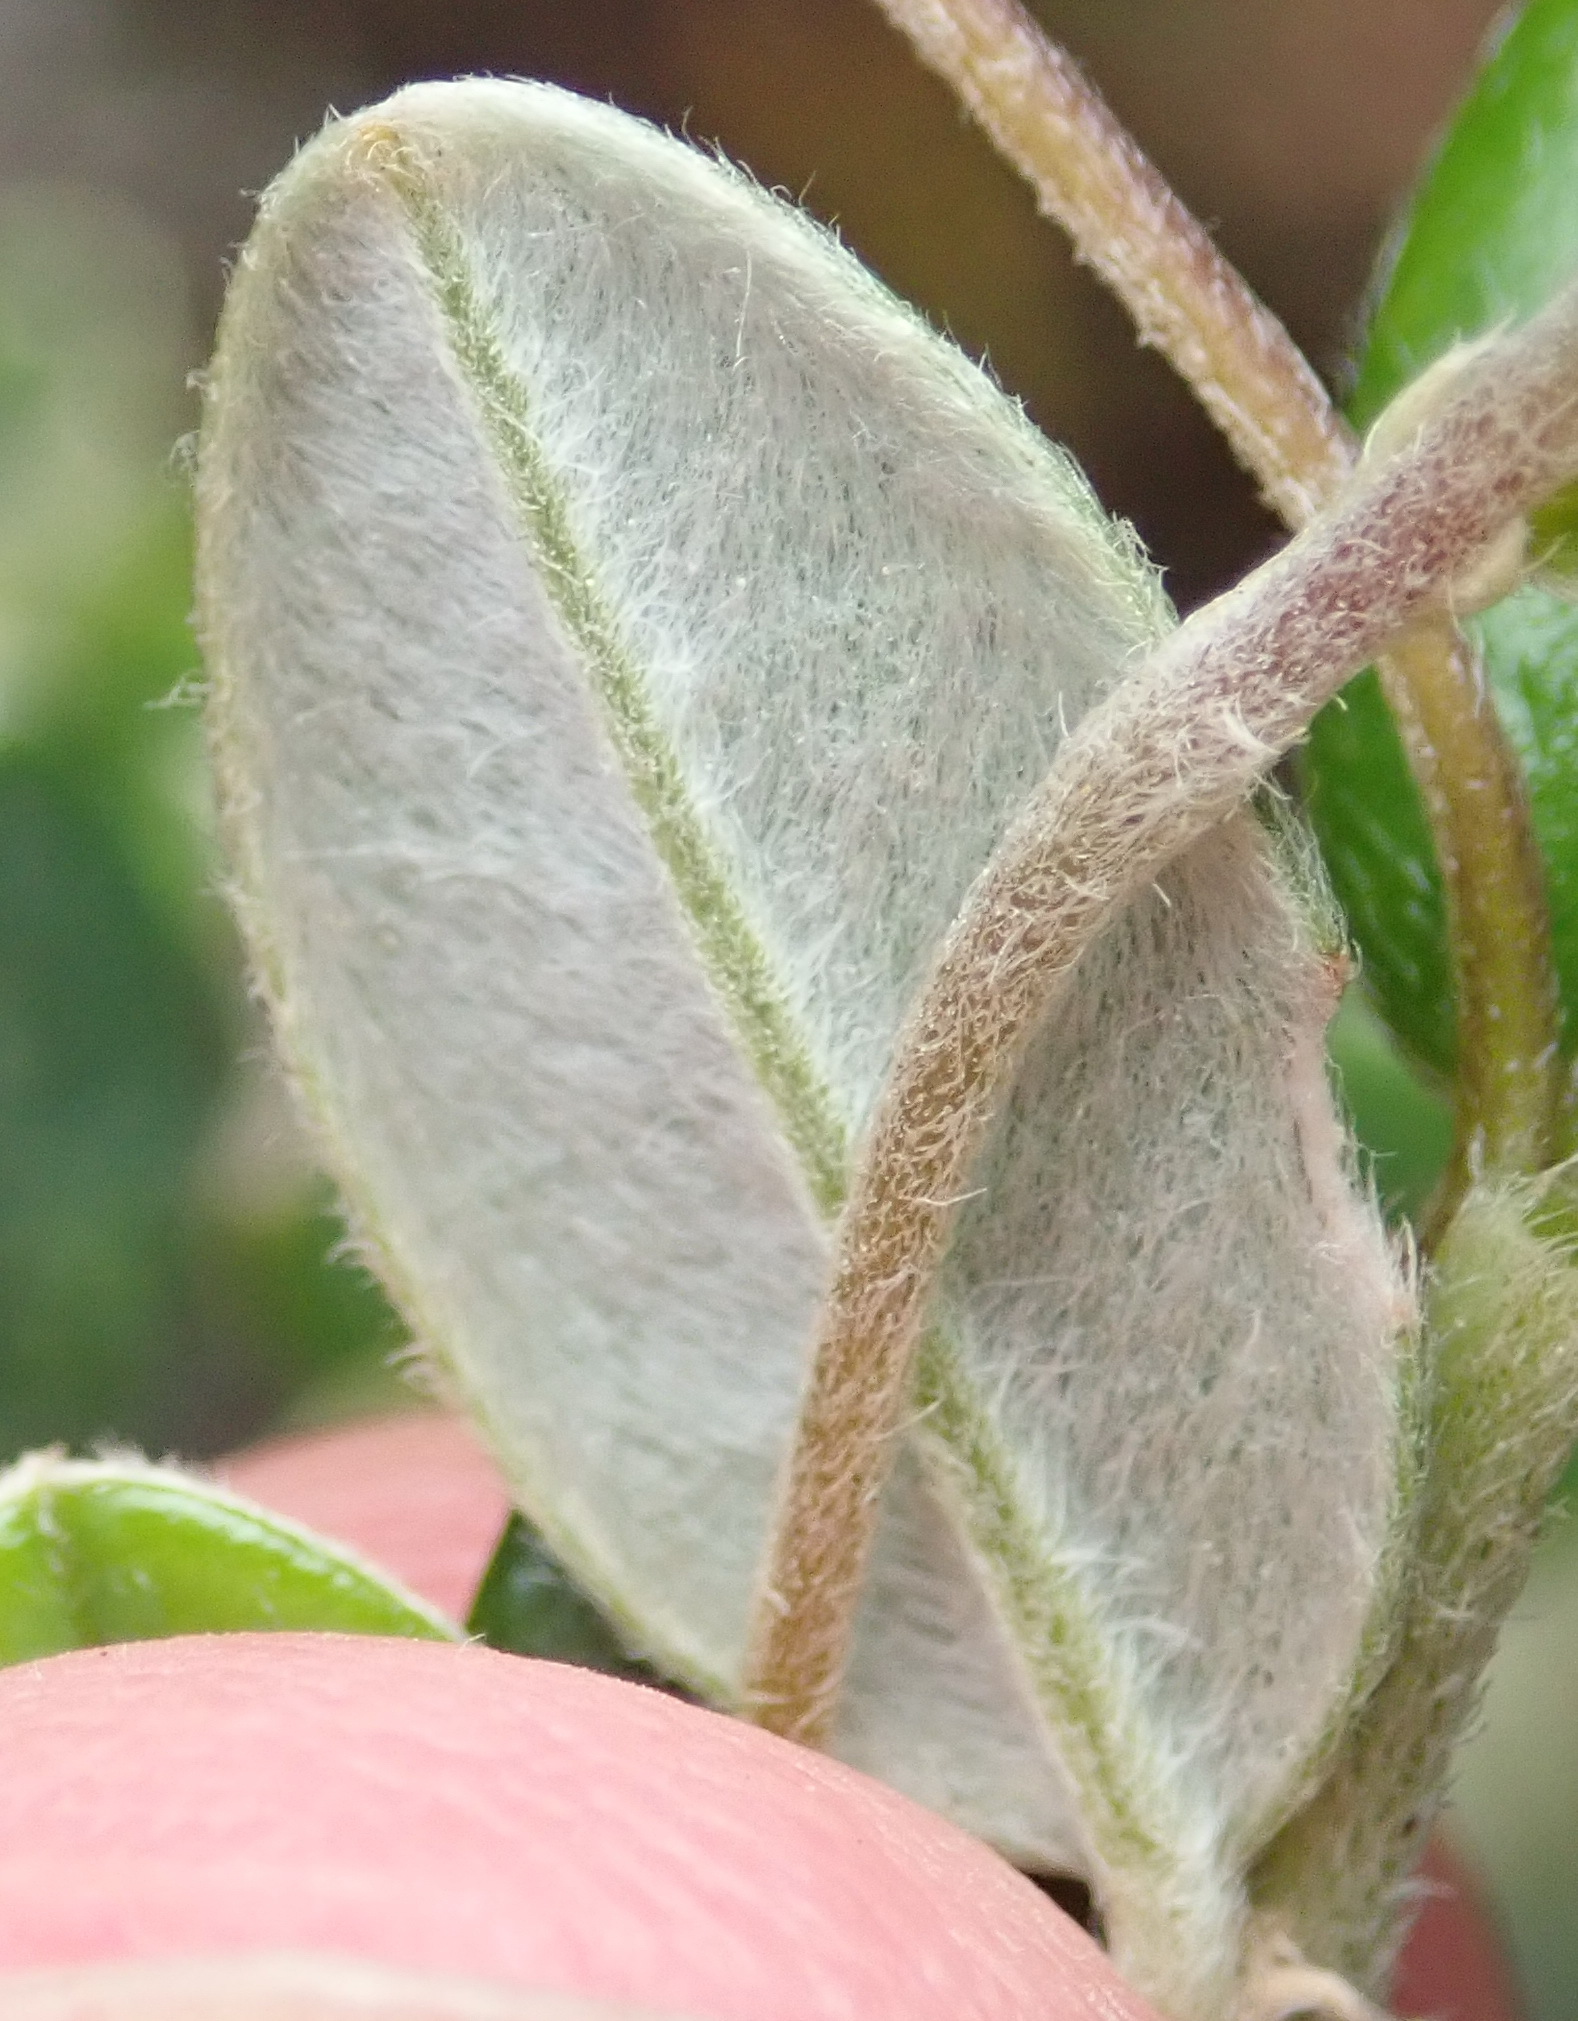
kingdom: Plantae
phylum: Tracheophyta
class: Magnoliopsida
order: Fabales
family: Fabaceae
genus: Podalyria
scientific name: Podalyria buxifolia
